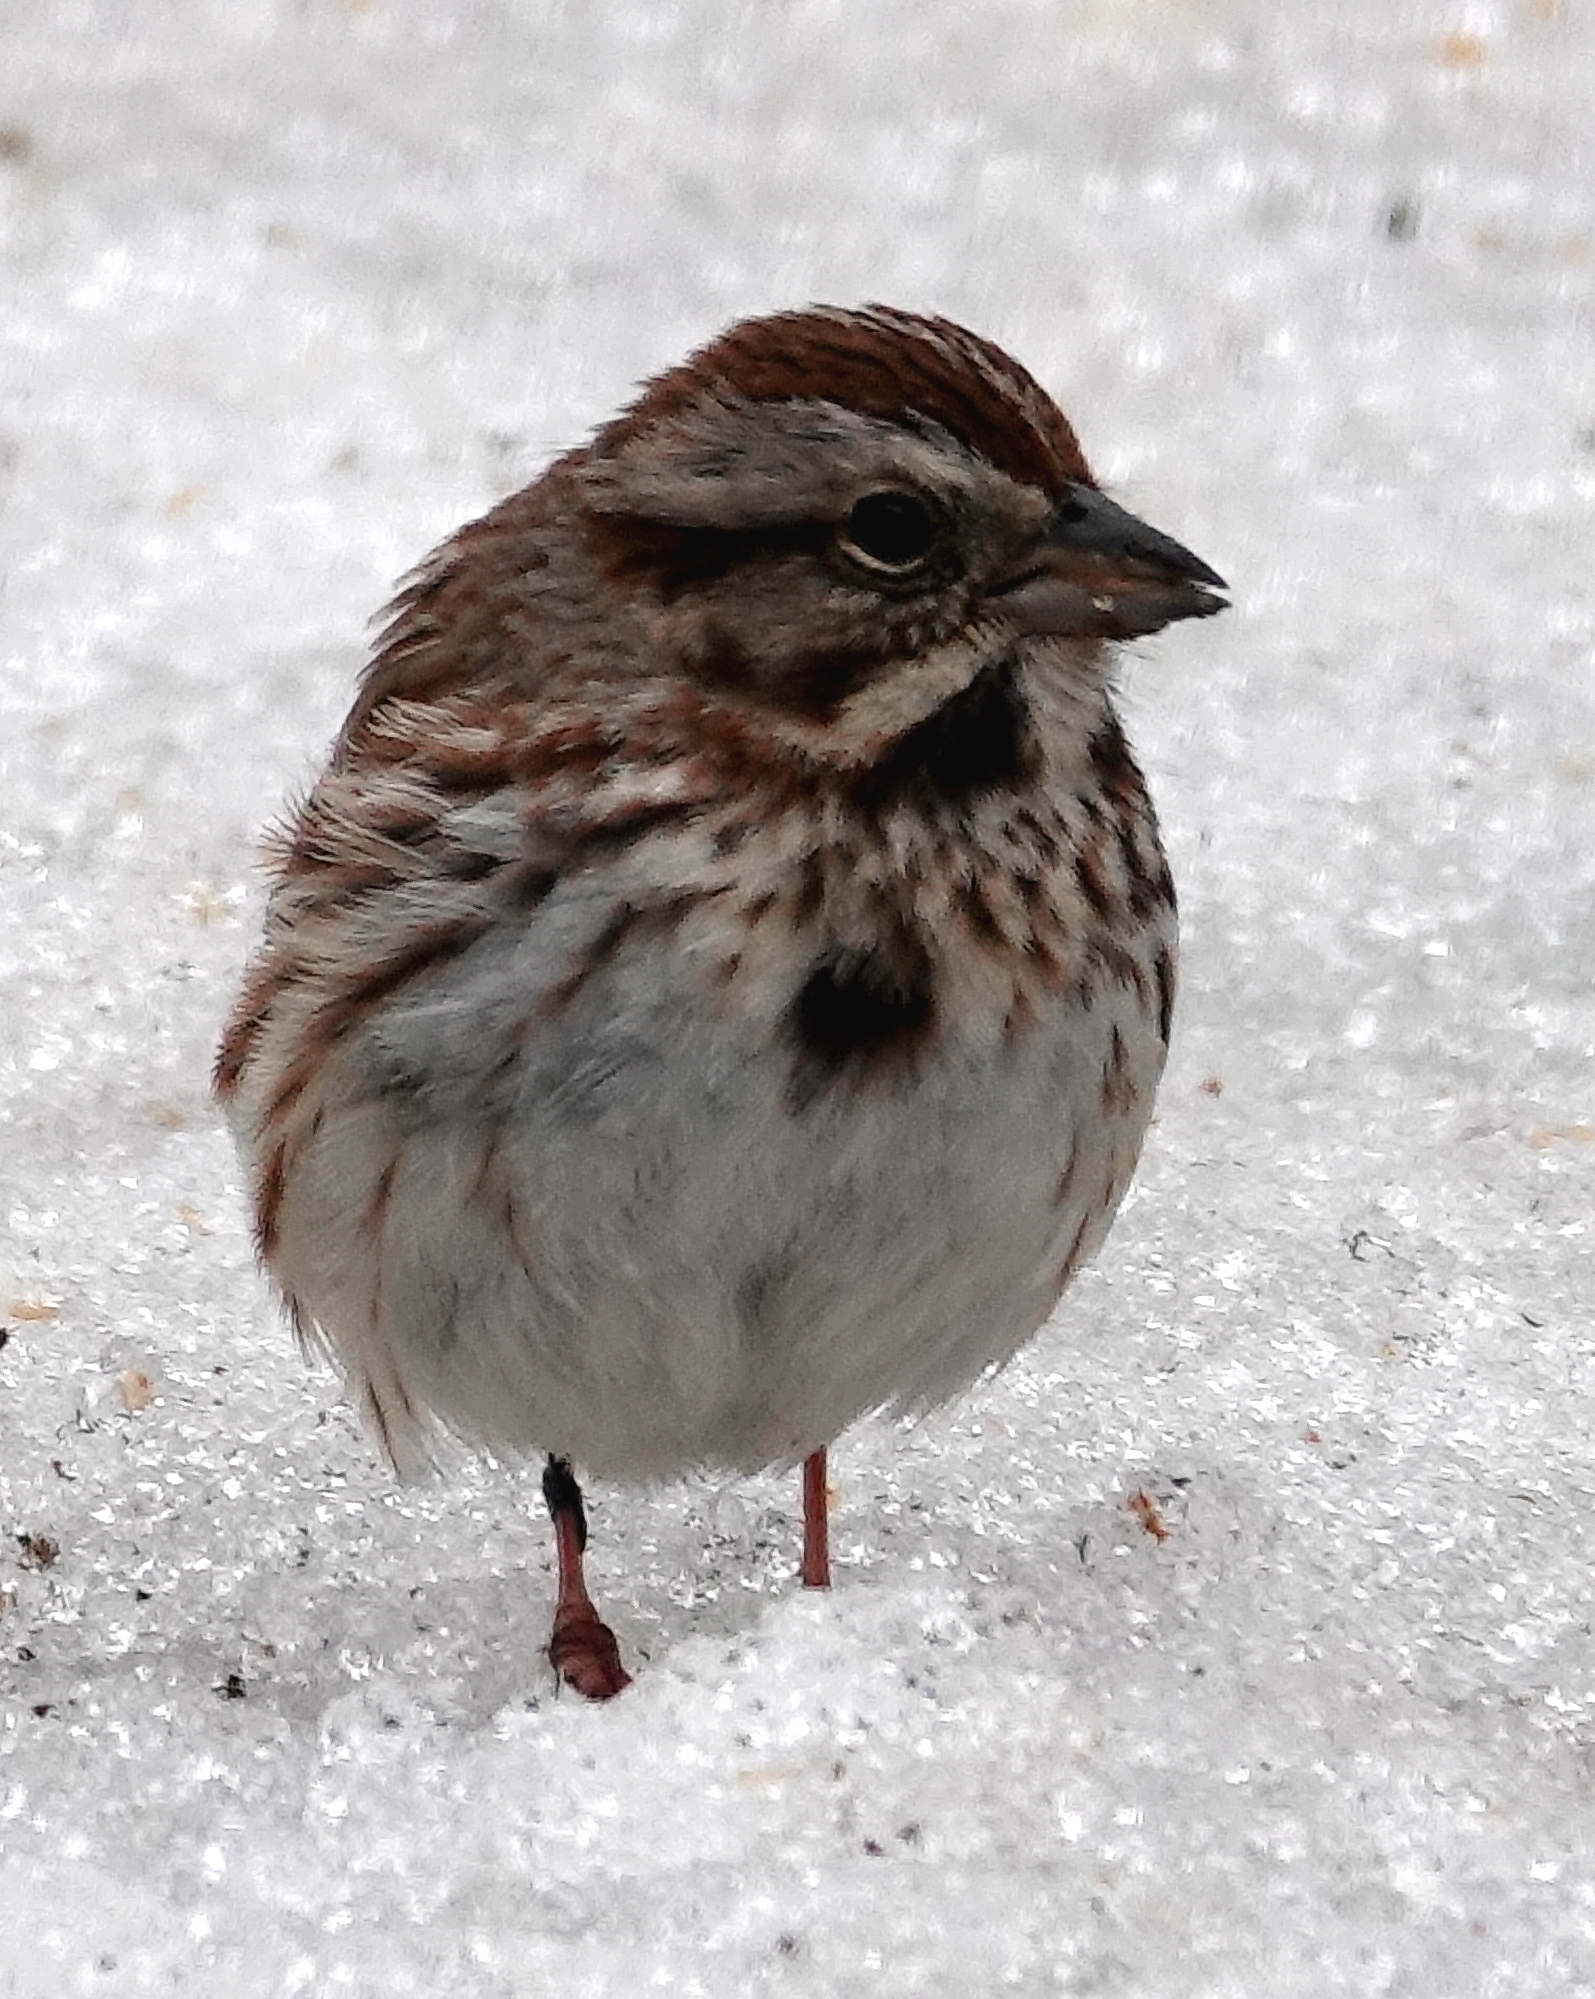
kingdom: Animalia
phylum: Chordata
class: Aves
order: Passeriformes
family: Passerellidae
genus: Melospiza
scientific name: Melospiza melodia
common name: Song sparrow
